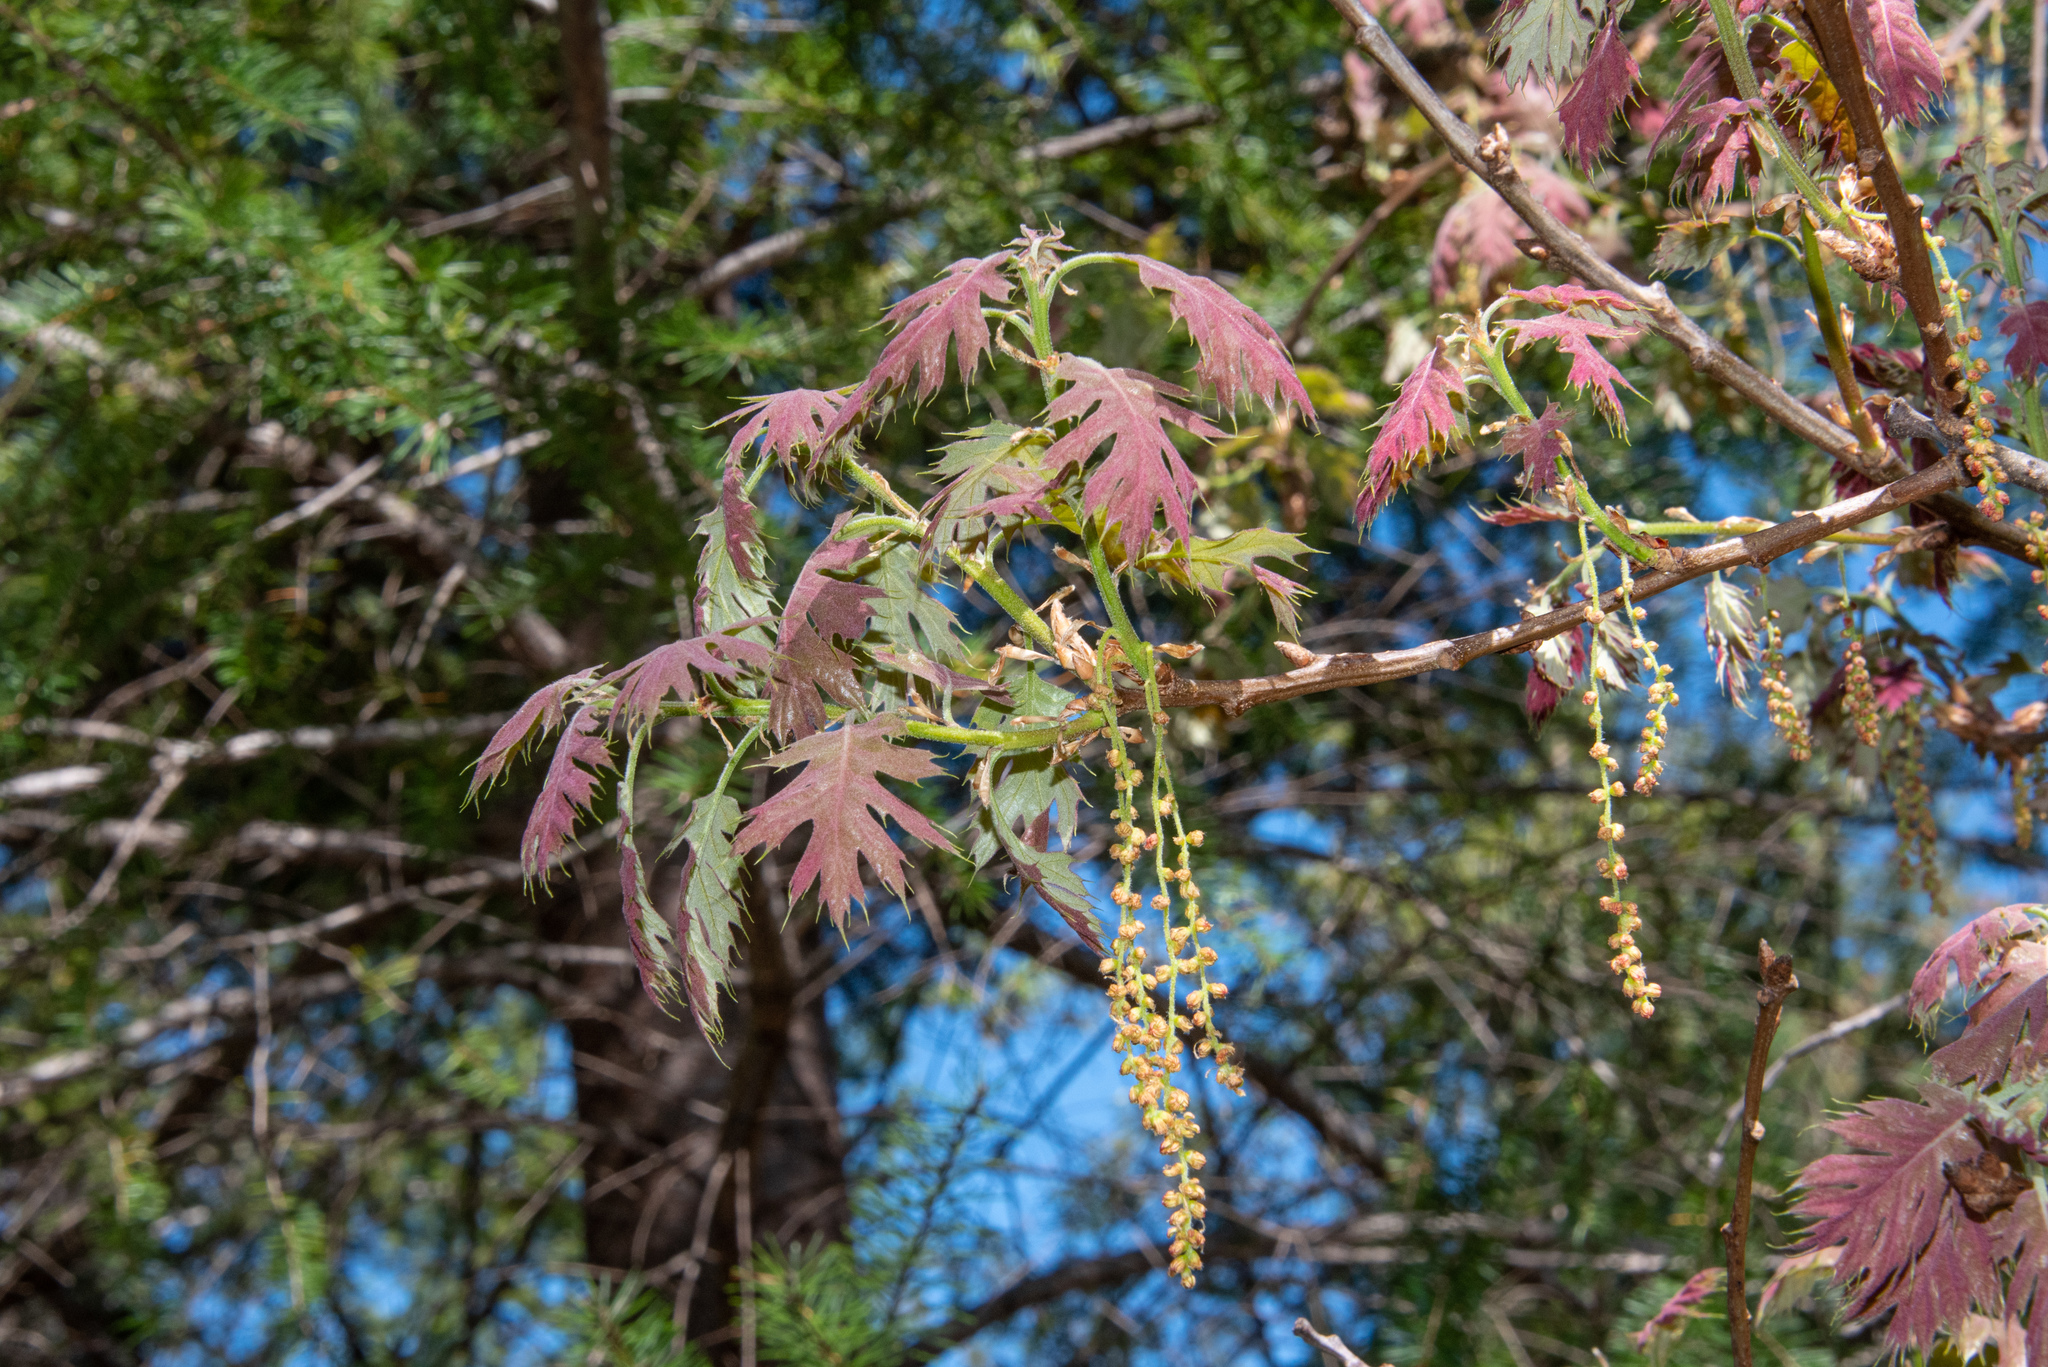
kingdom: Plantae
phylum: Tracheophyta
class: Magnoliopsida
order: Fagales
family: Fagaceae
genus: Quercus
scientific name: Quercus kelloggii
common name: California black oak
